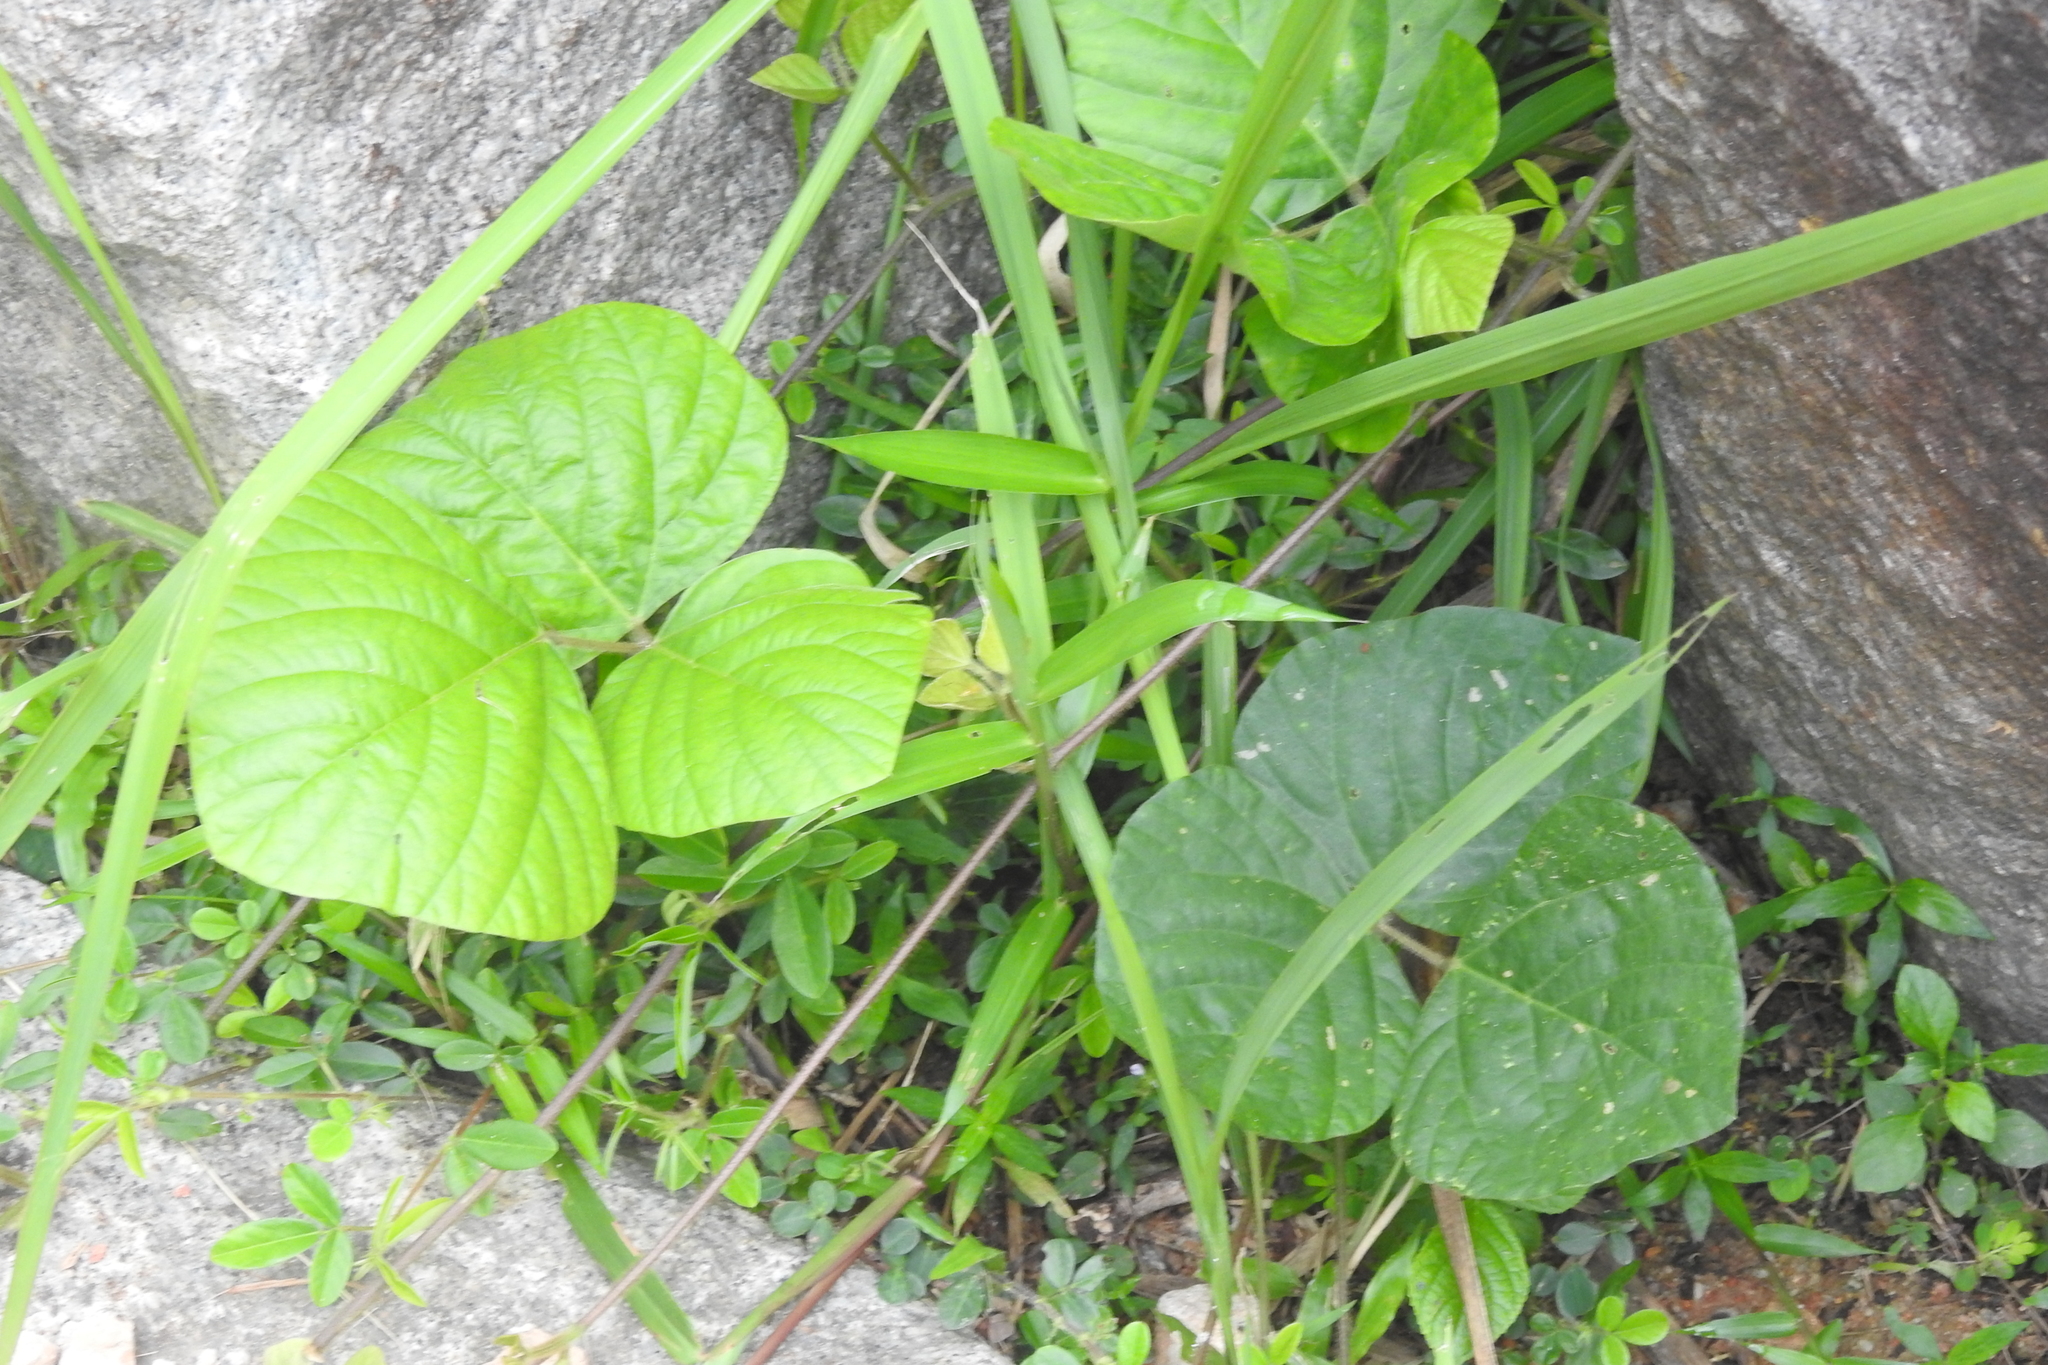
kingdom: Plantae
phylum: Tracheophyta
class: Magnoliopsida
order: Fabales
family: Fabaceae
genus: Neustanthus
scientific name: Neustanthus phaseoloides
